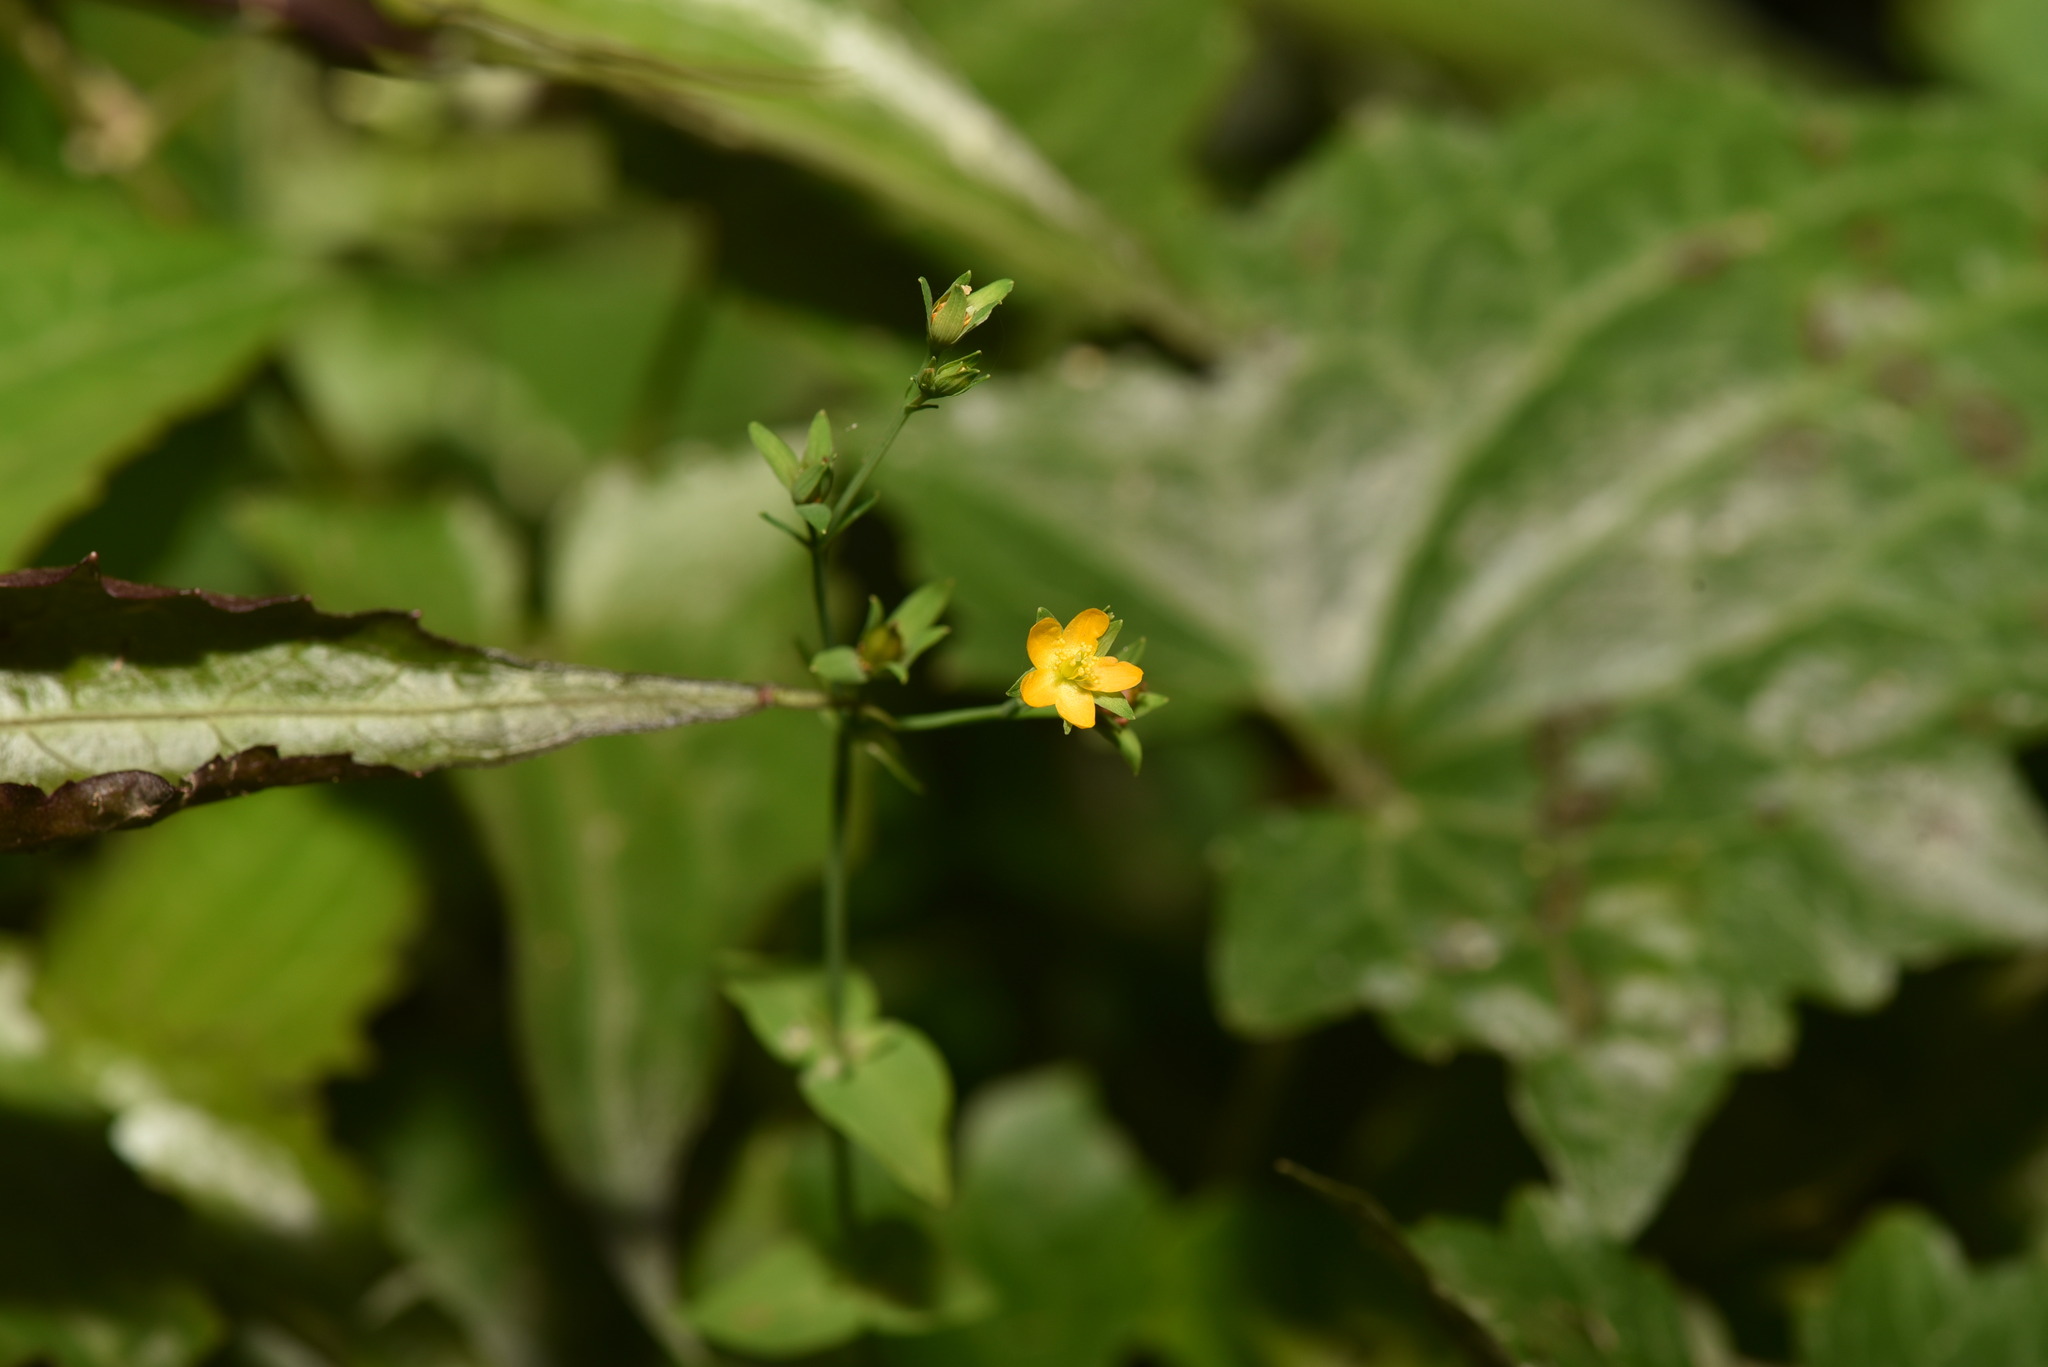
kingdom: Plantae
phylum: Tracheophyta
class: Magnoliopsida
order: Malpighiales
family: Hypericaceae
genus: Hypericum
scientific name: Hypericum japonicum
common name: Matted st. john's-wort
